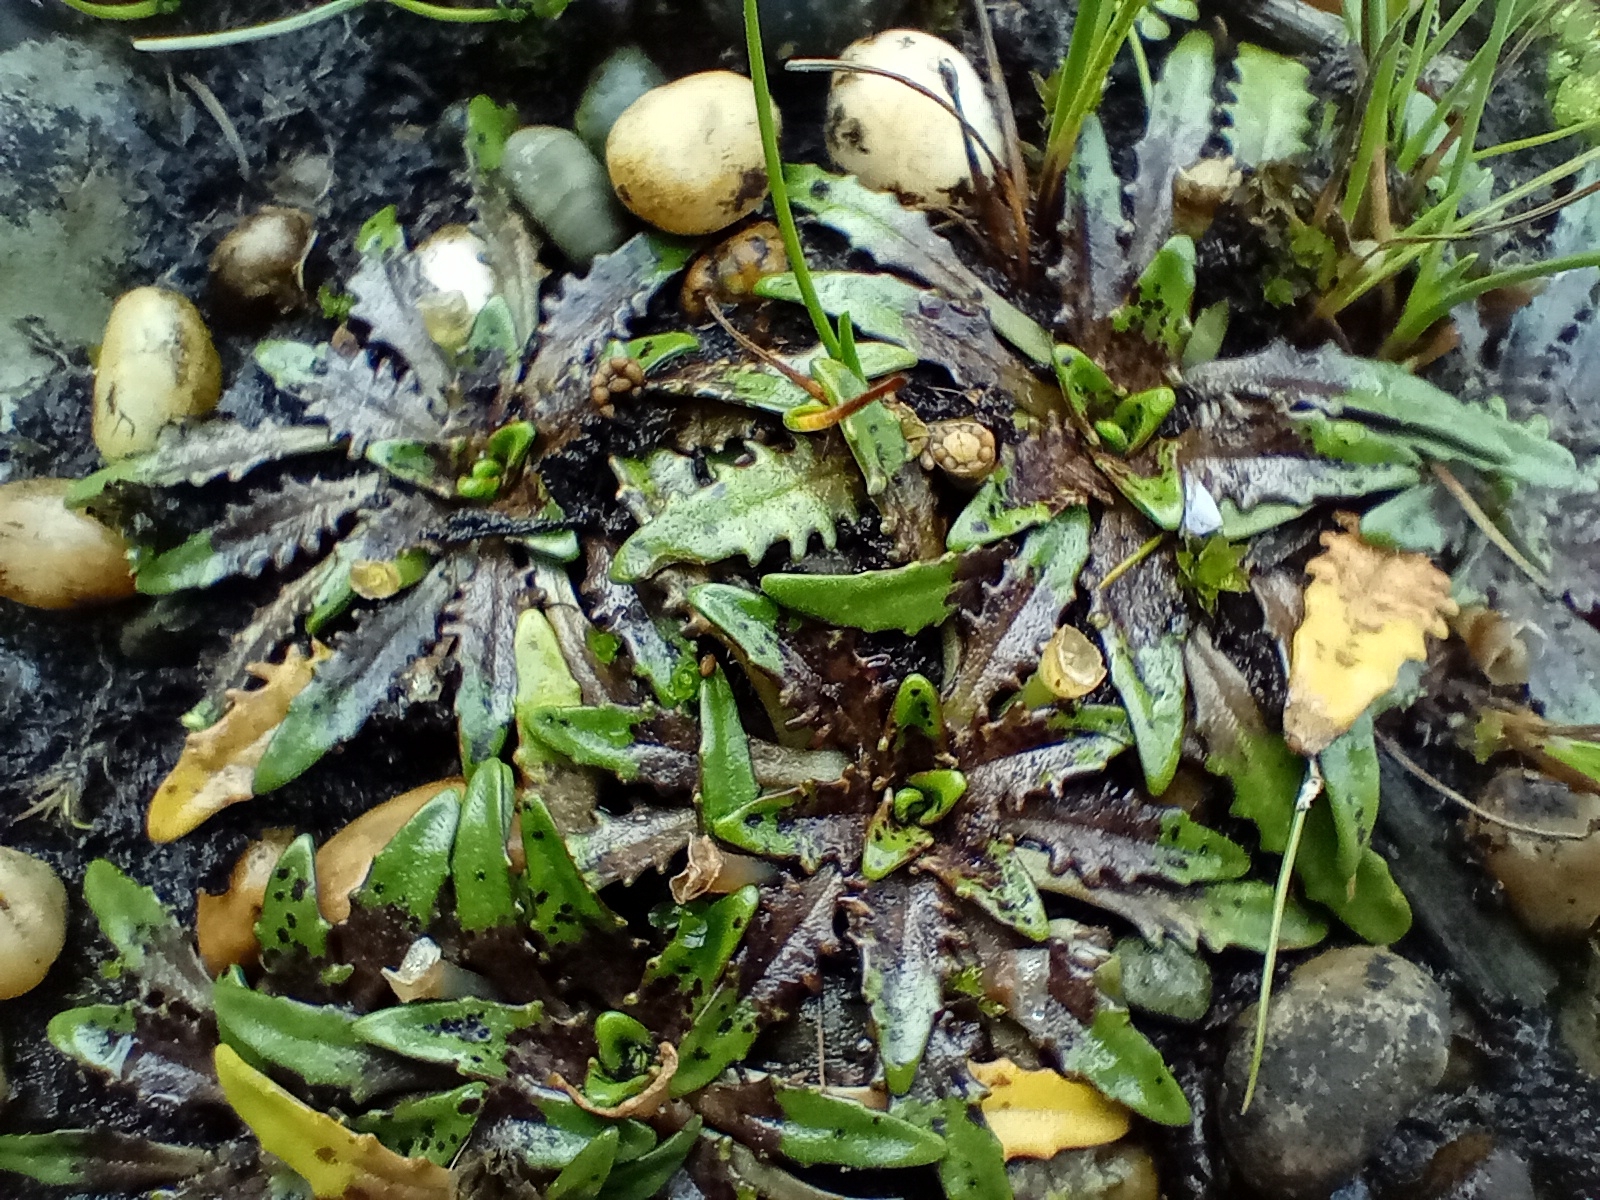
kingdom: Plantae
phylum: Tracheophyta
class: Magnoliopsida
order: Lamiales
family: Plantaginaceae
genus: Plantago
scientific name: Plantago triandra
